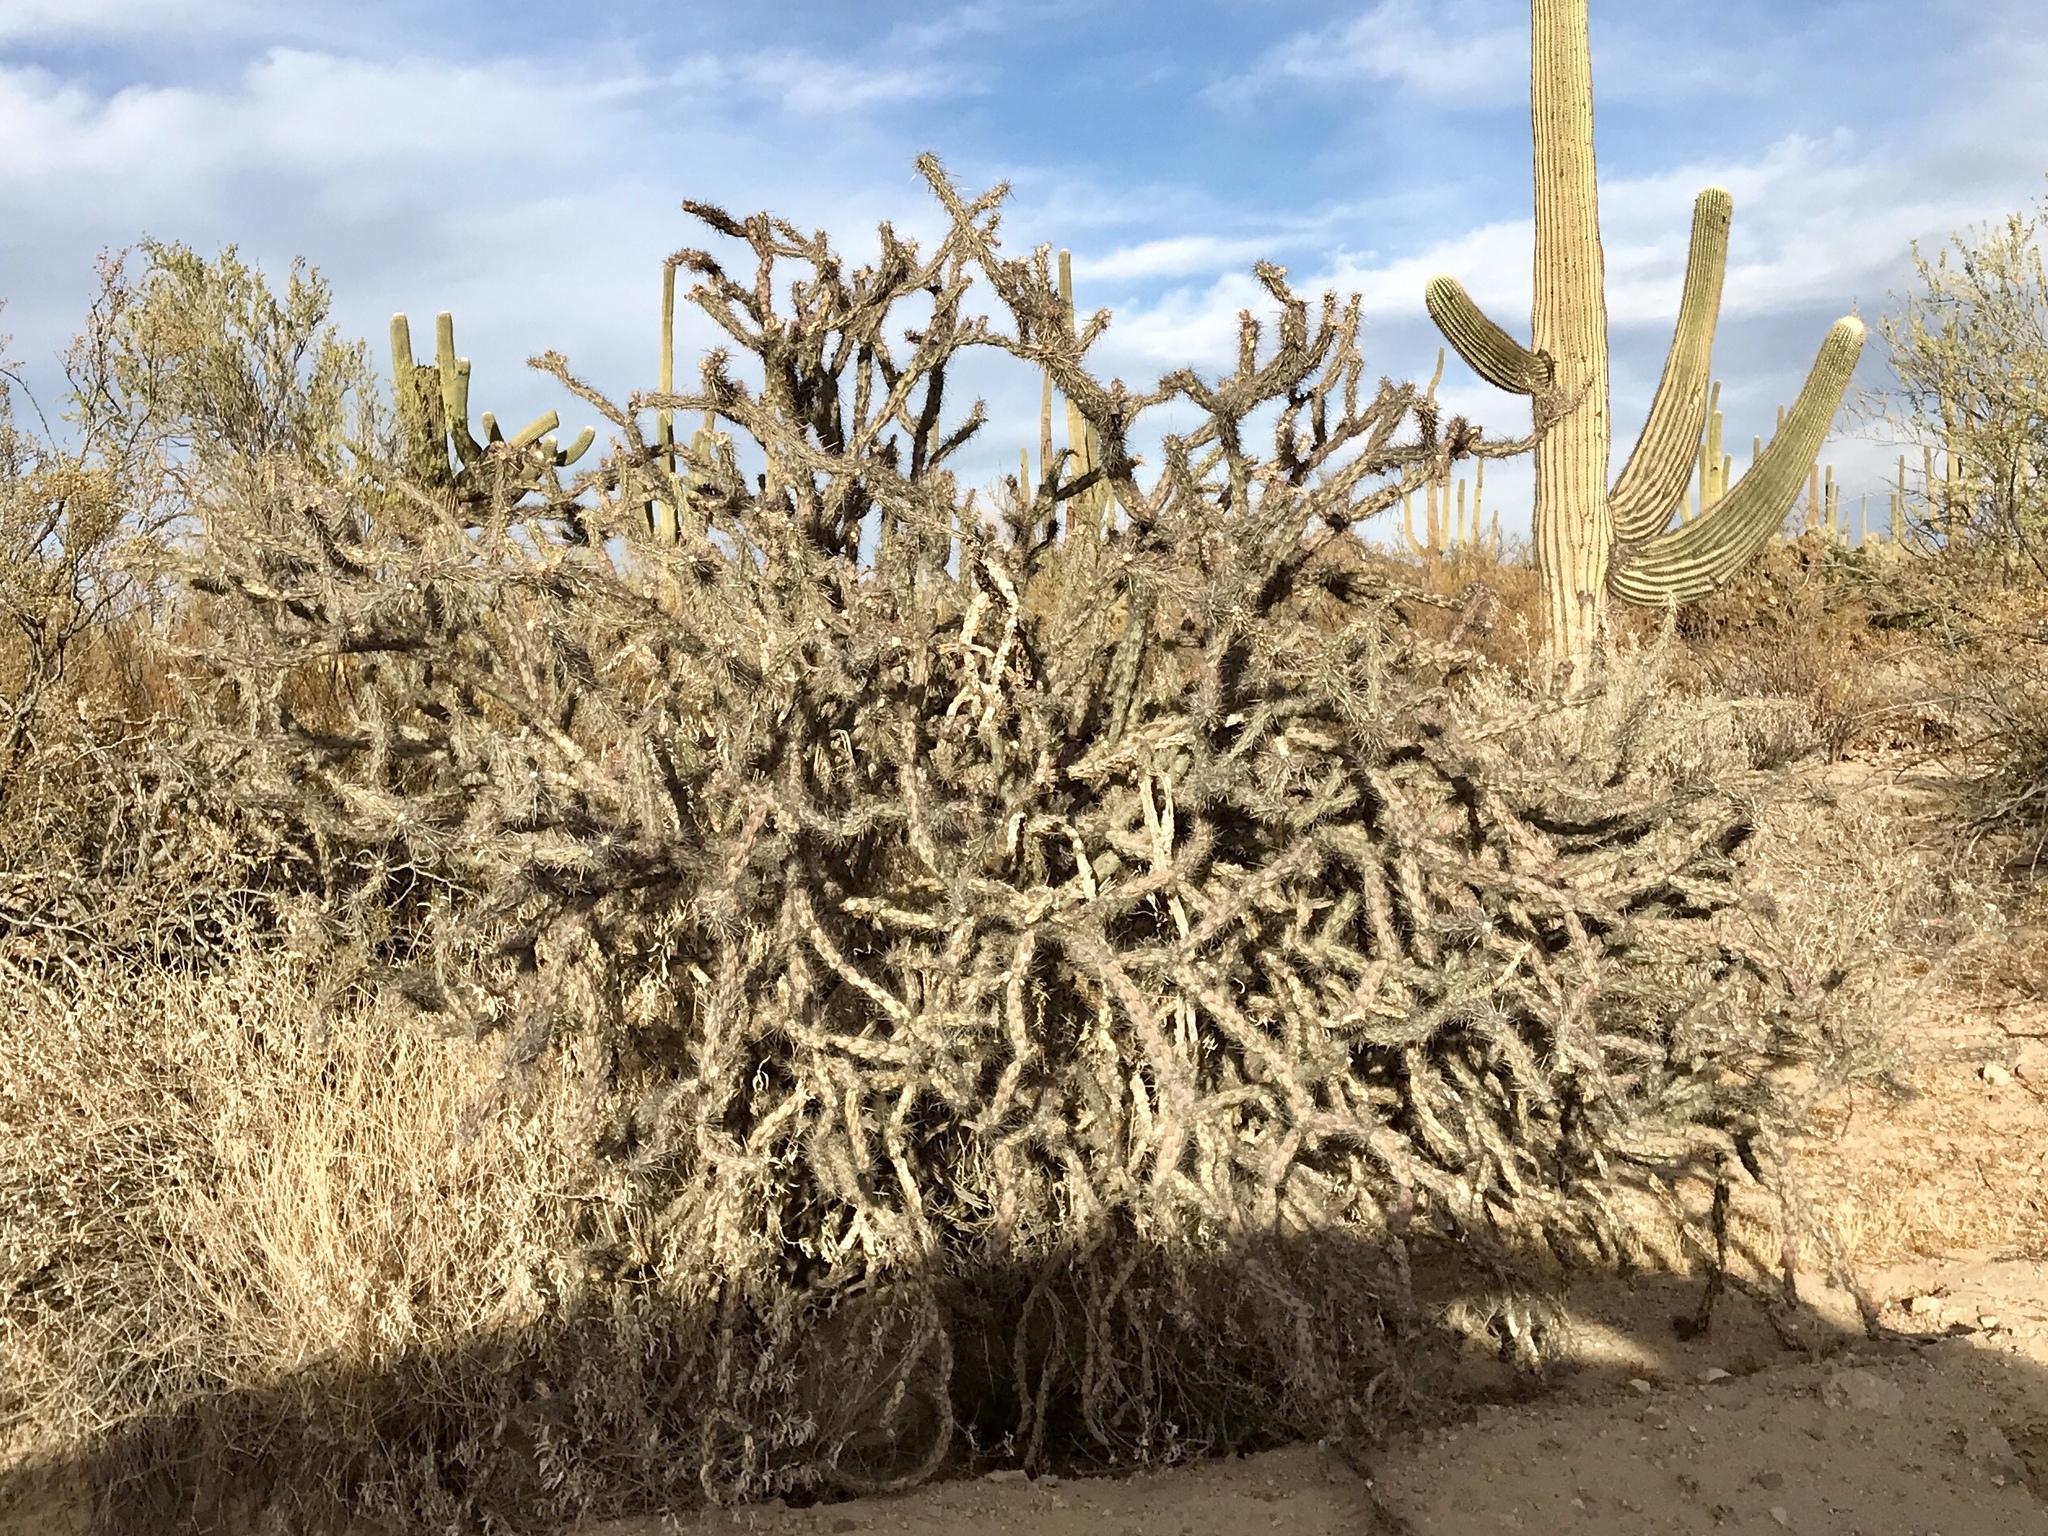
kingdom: Plantae
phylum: Tracheophyta
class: Magnoliopsida
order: Caryophyllales
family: Cactaceae
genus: Cylindropuntia
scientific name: Cylindropuntia acanthocarpa
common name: Buckhorn cholla
